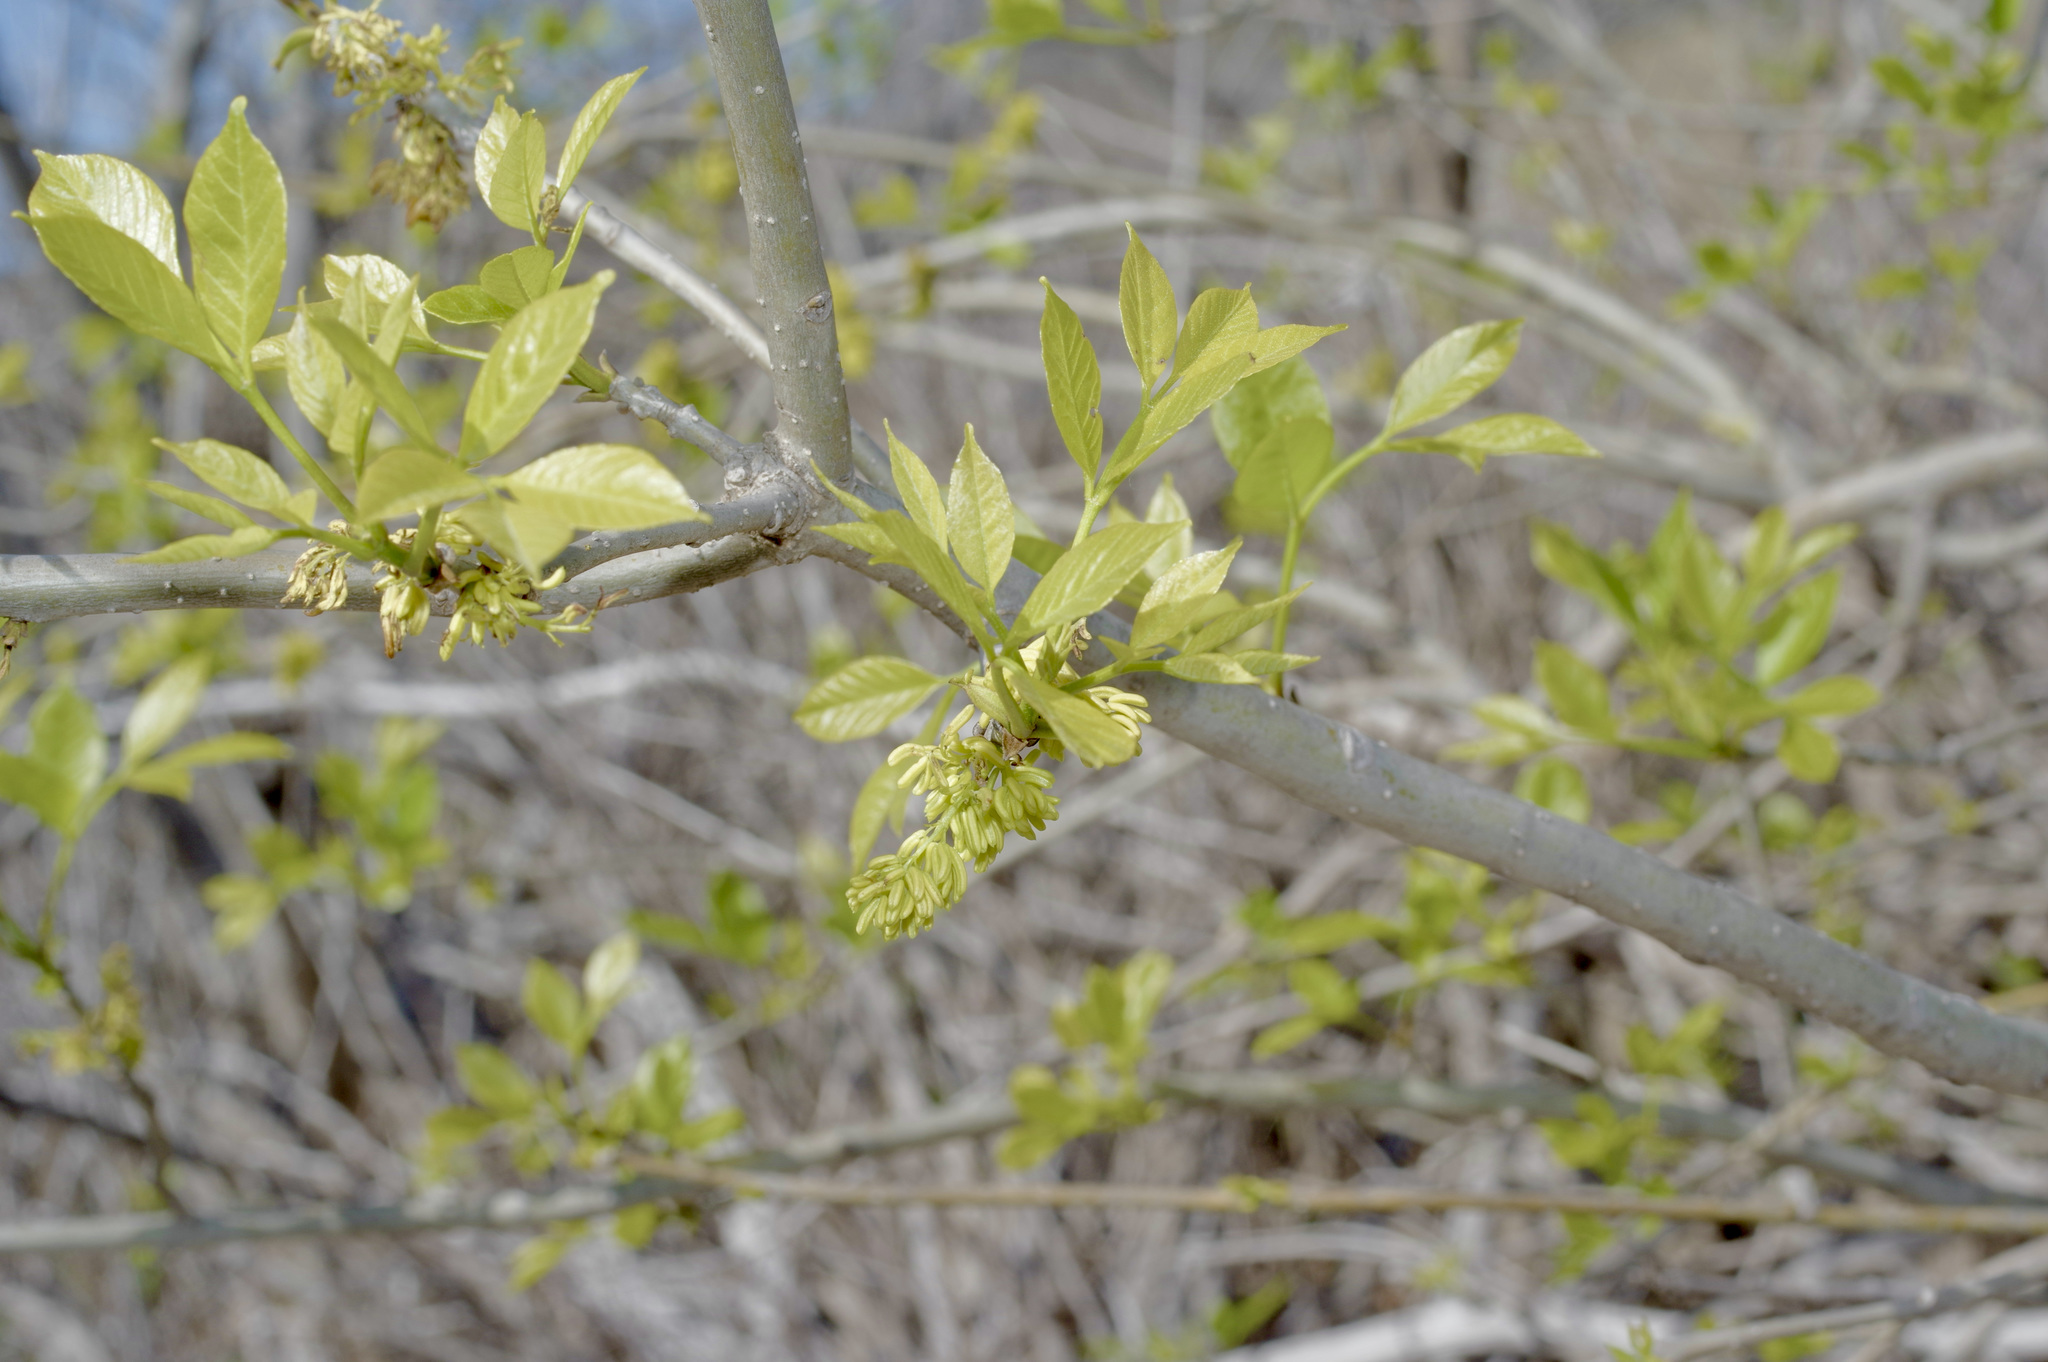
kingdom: Plantae
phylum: Tracheophyta
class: Magnoliopsida
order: Lamiales
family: Oleaceae
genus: Fraxinus
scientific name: Fraxinus pennsylvanica
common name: Green ash
